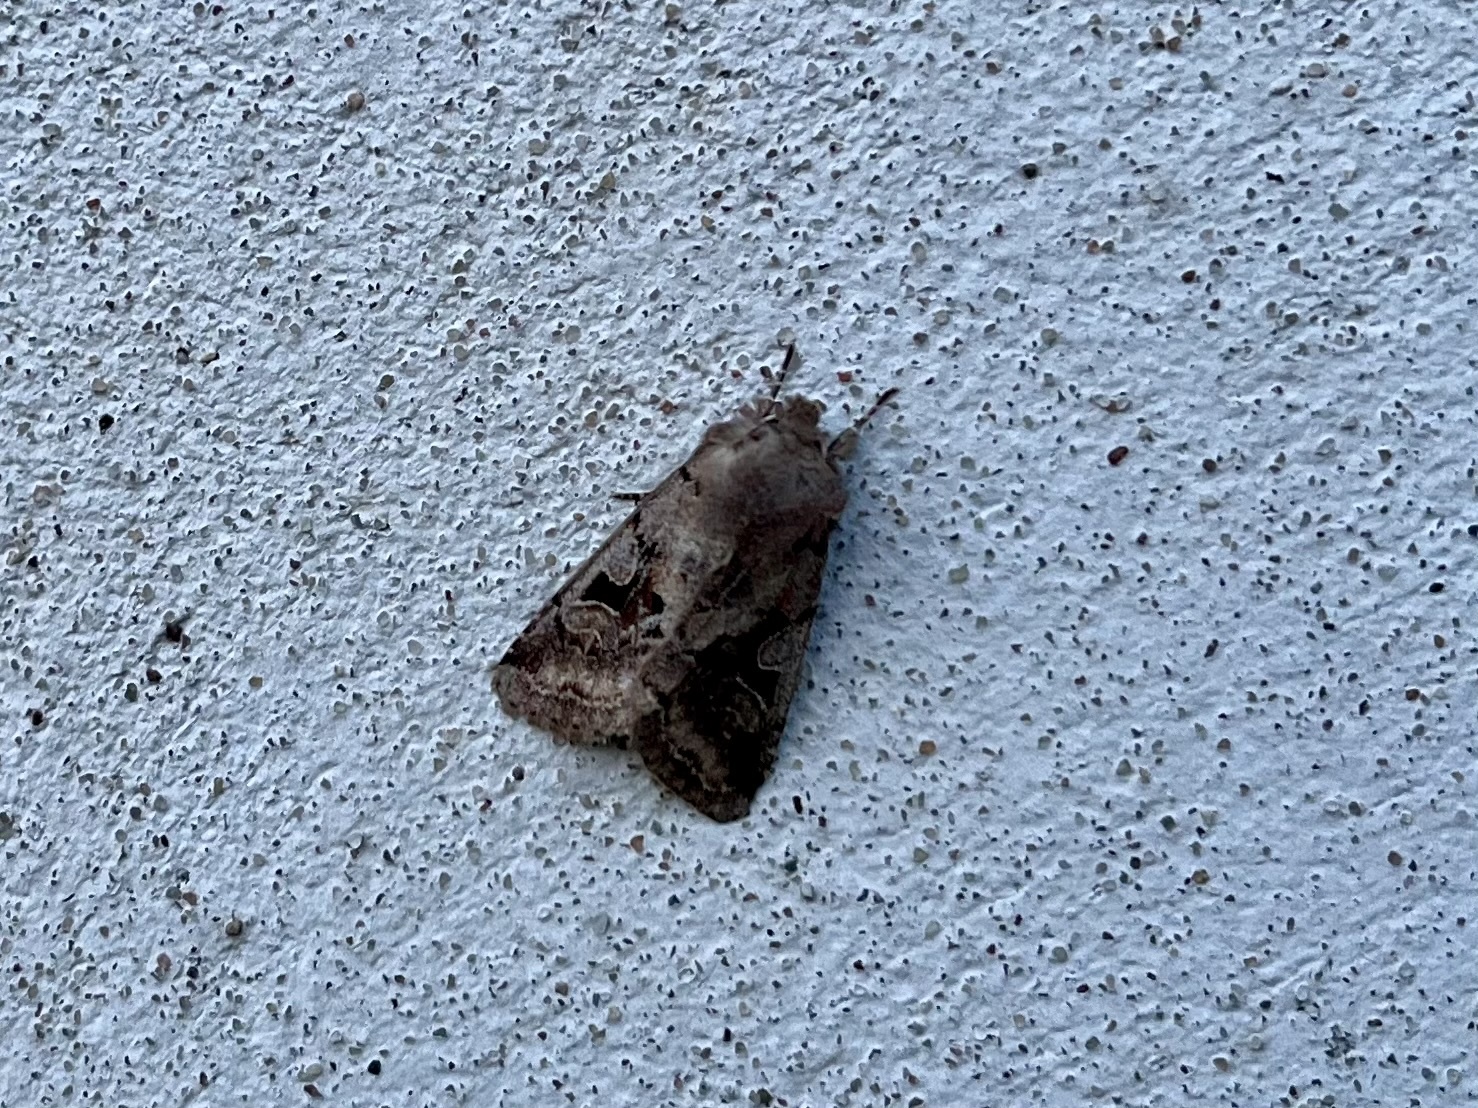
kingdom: Animalia
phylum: Arthropoda
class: Insecta
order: Lepidoptera
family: Noctuidae
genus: Orthosia
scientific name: Orthosia gothica
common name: Hebrew character
